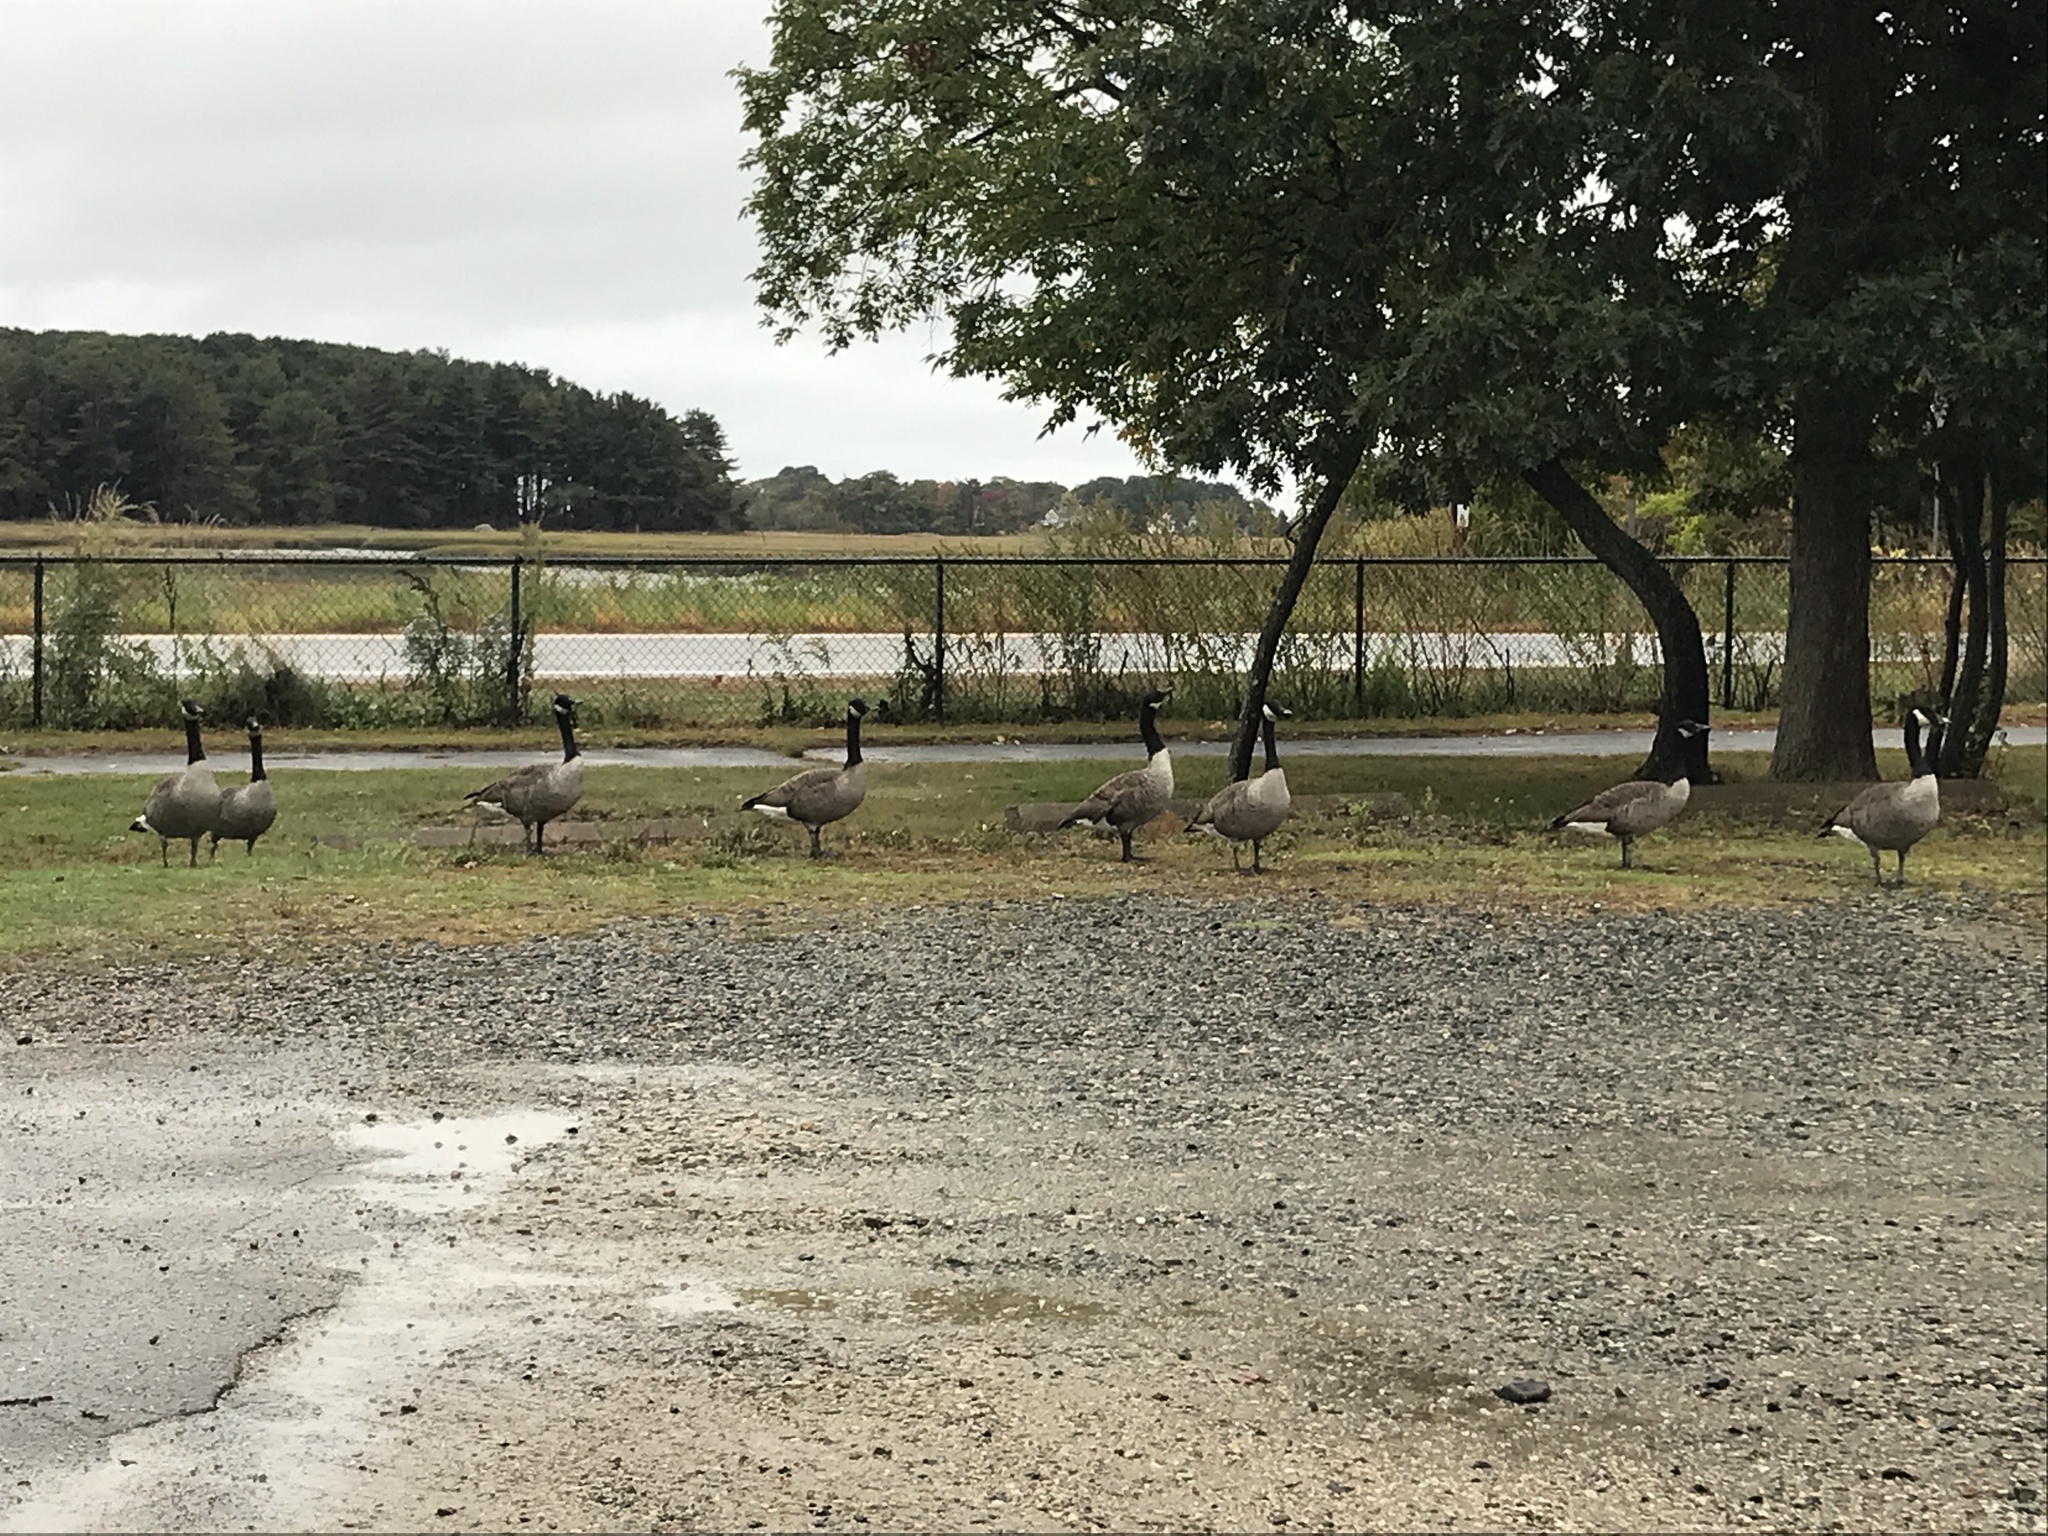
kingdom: Animalia
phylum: Chordata
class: Aves
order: Anseriformes
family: Anatidae
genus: Branta
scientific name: Branta canadensis
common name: Canada goose
